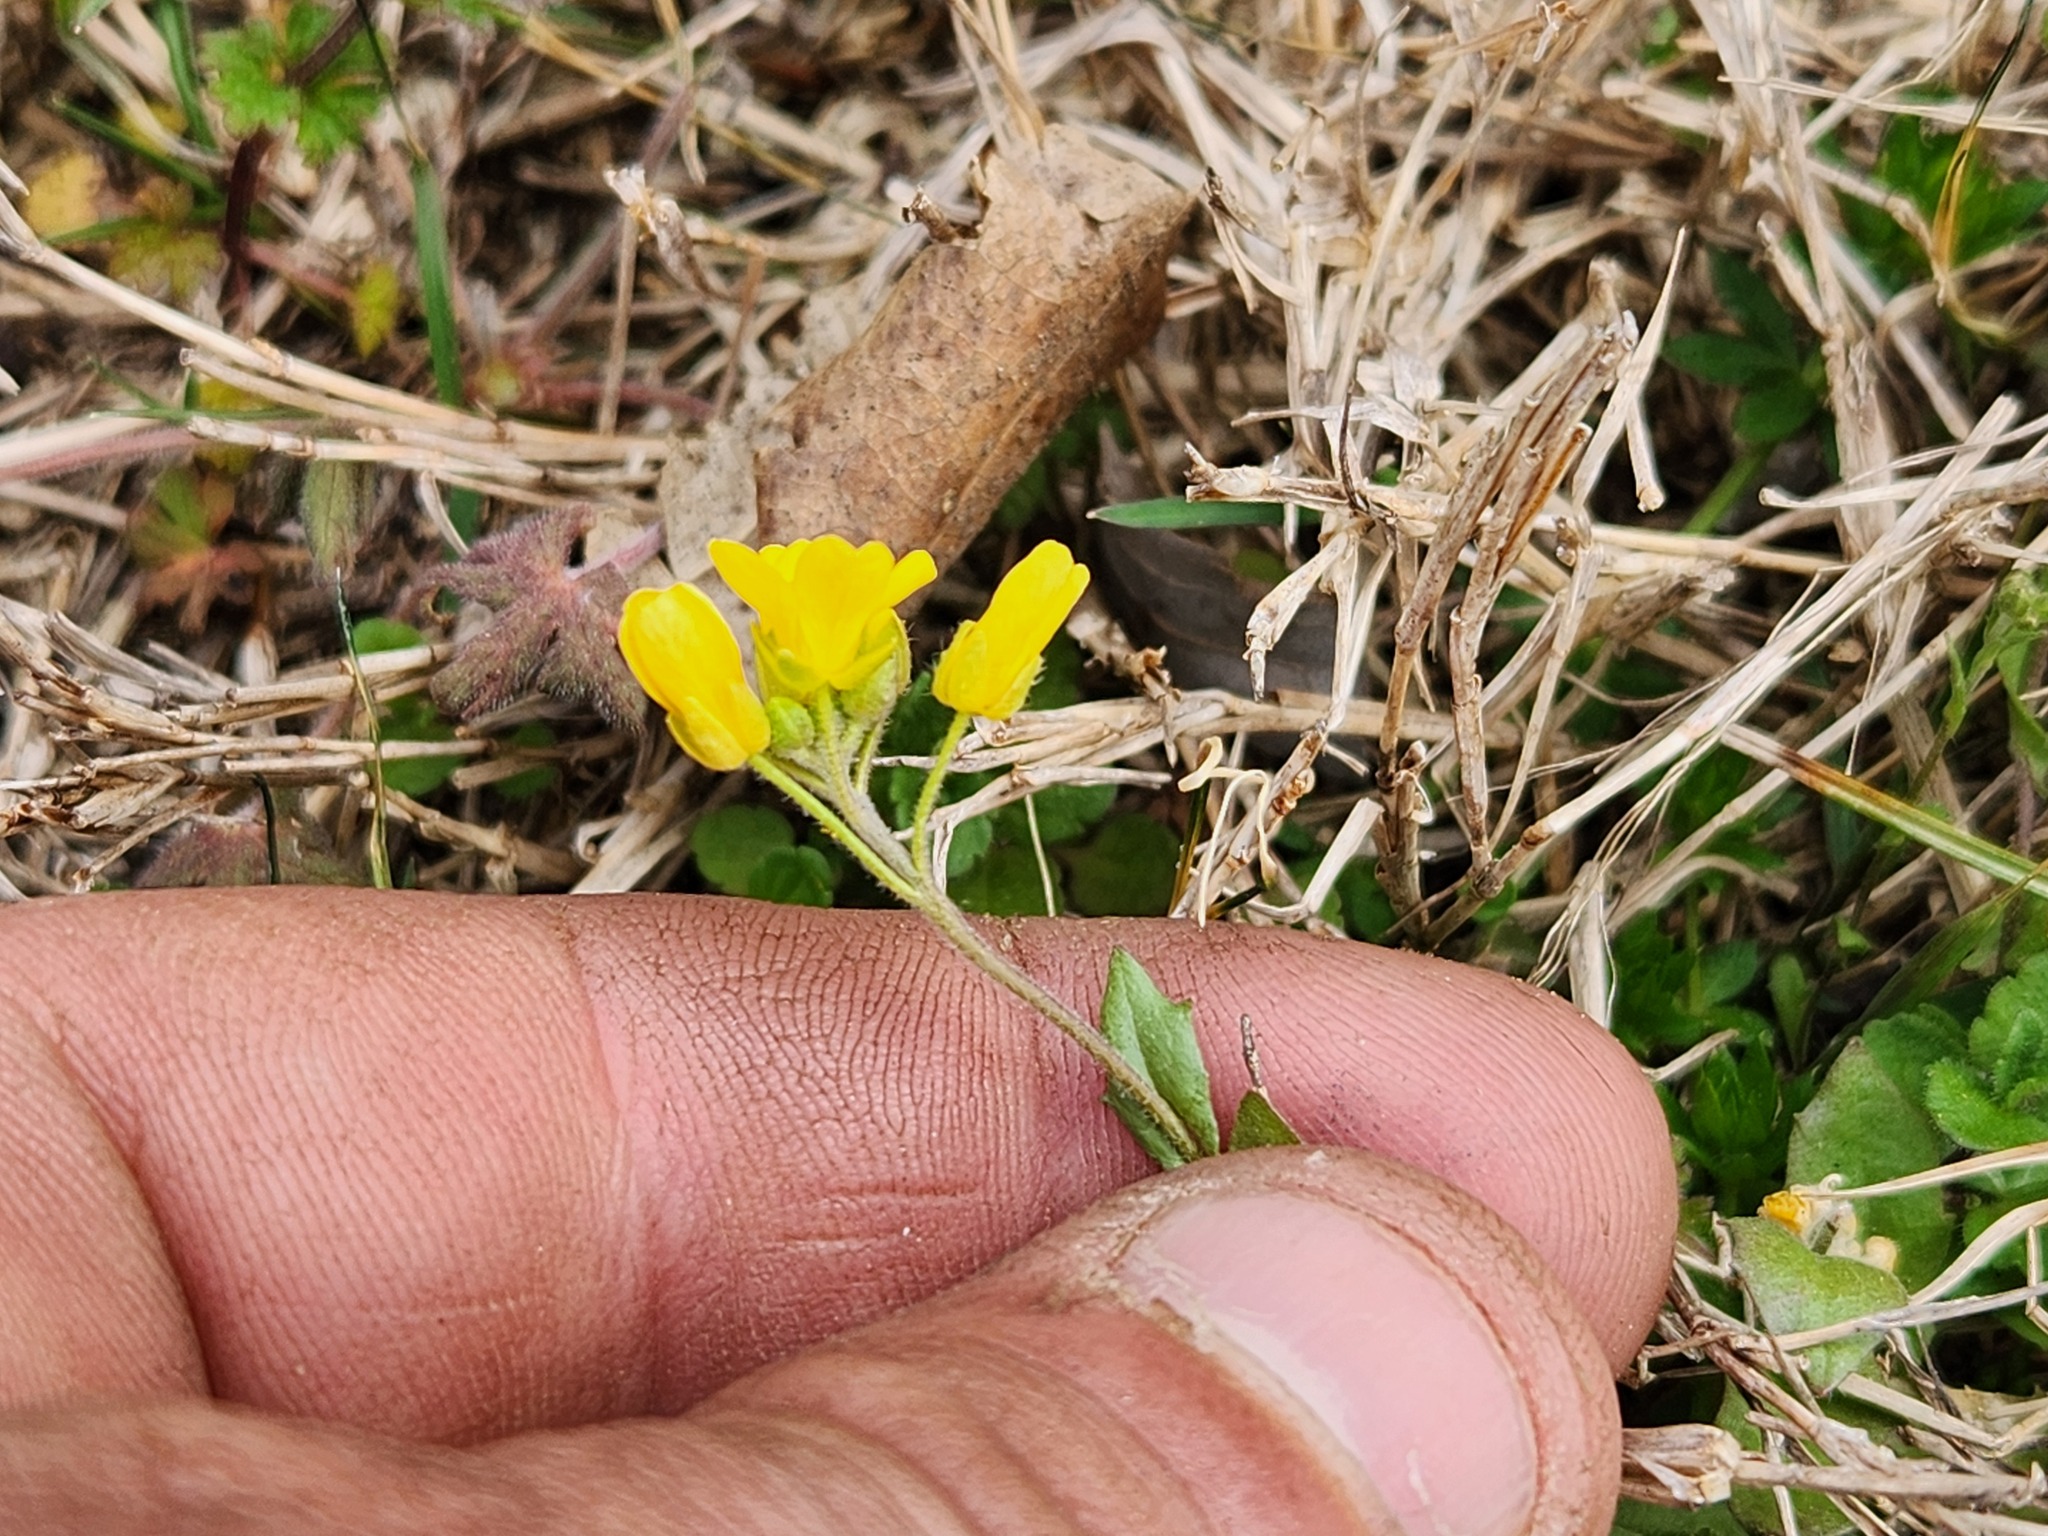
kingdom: Plantae
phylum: Tracheophyta
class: Magnoliopsida
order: Brassicales
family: Brassicaceae
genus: Paysonia
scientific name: Paysonia lescurii
